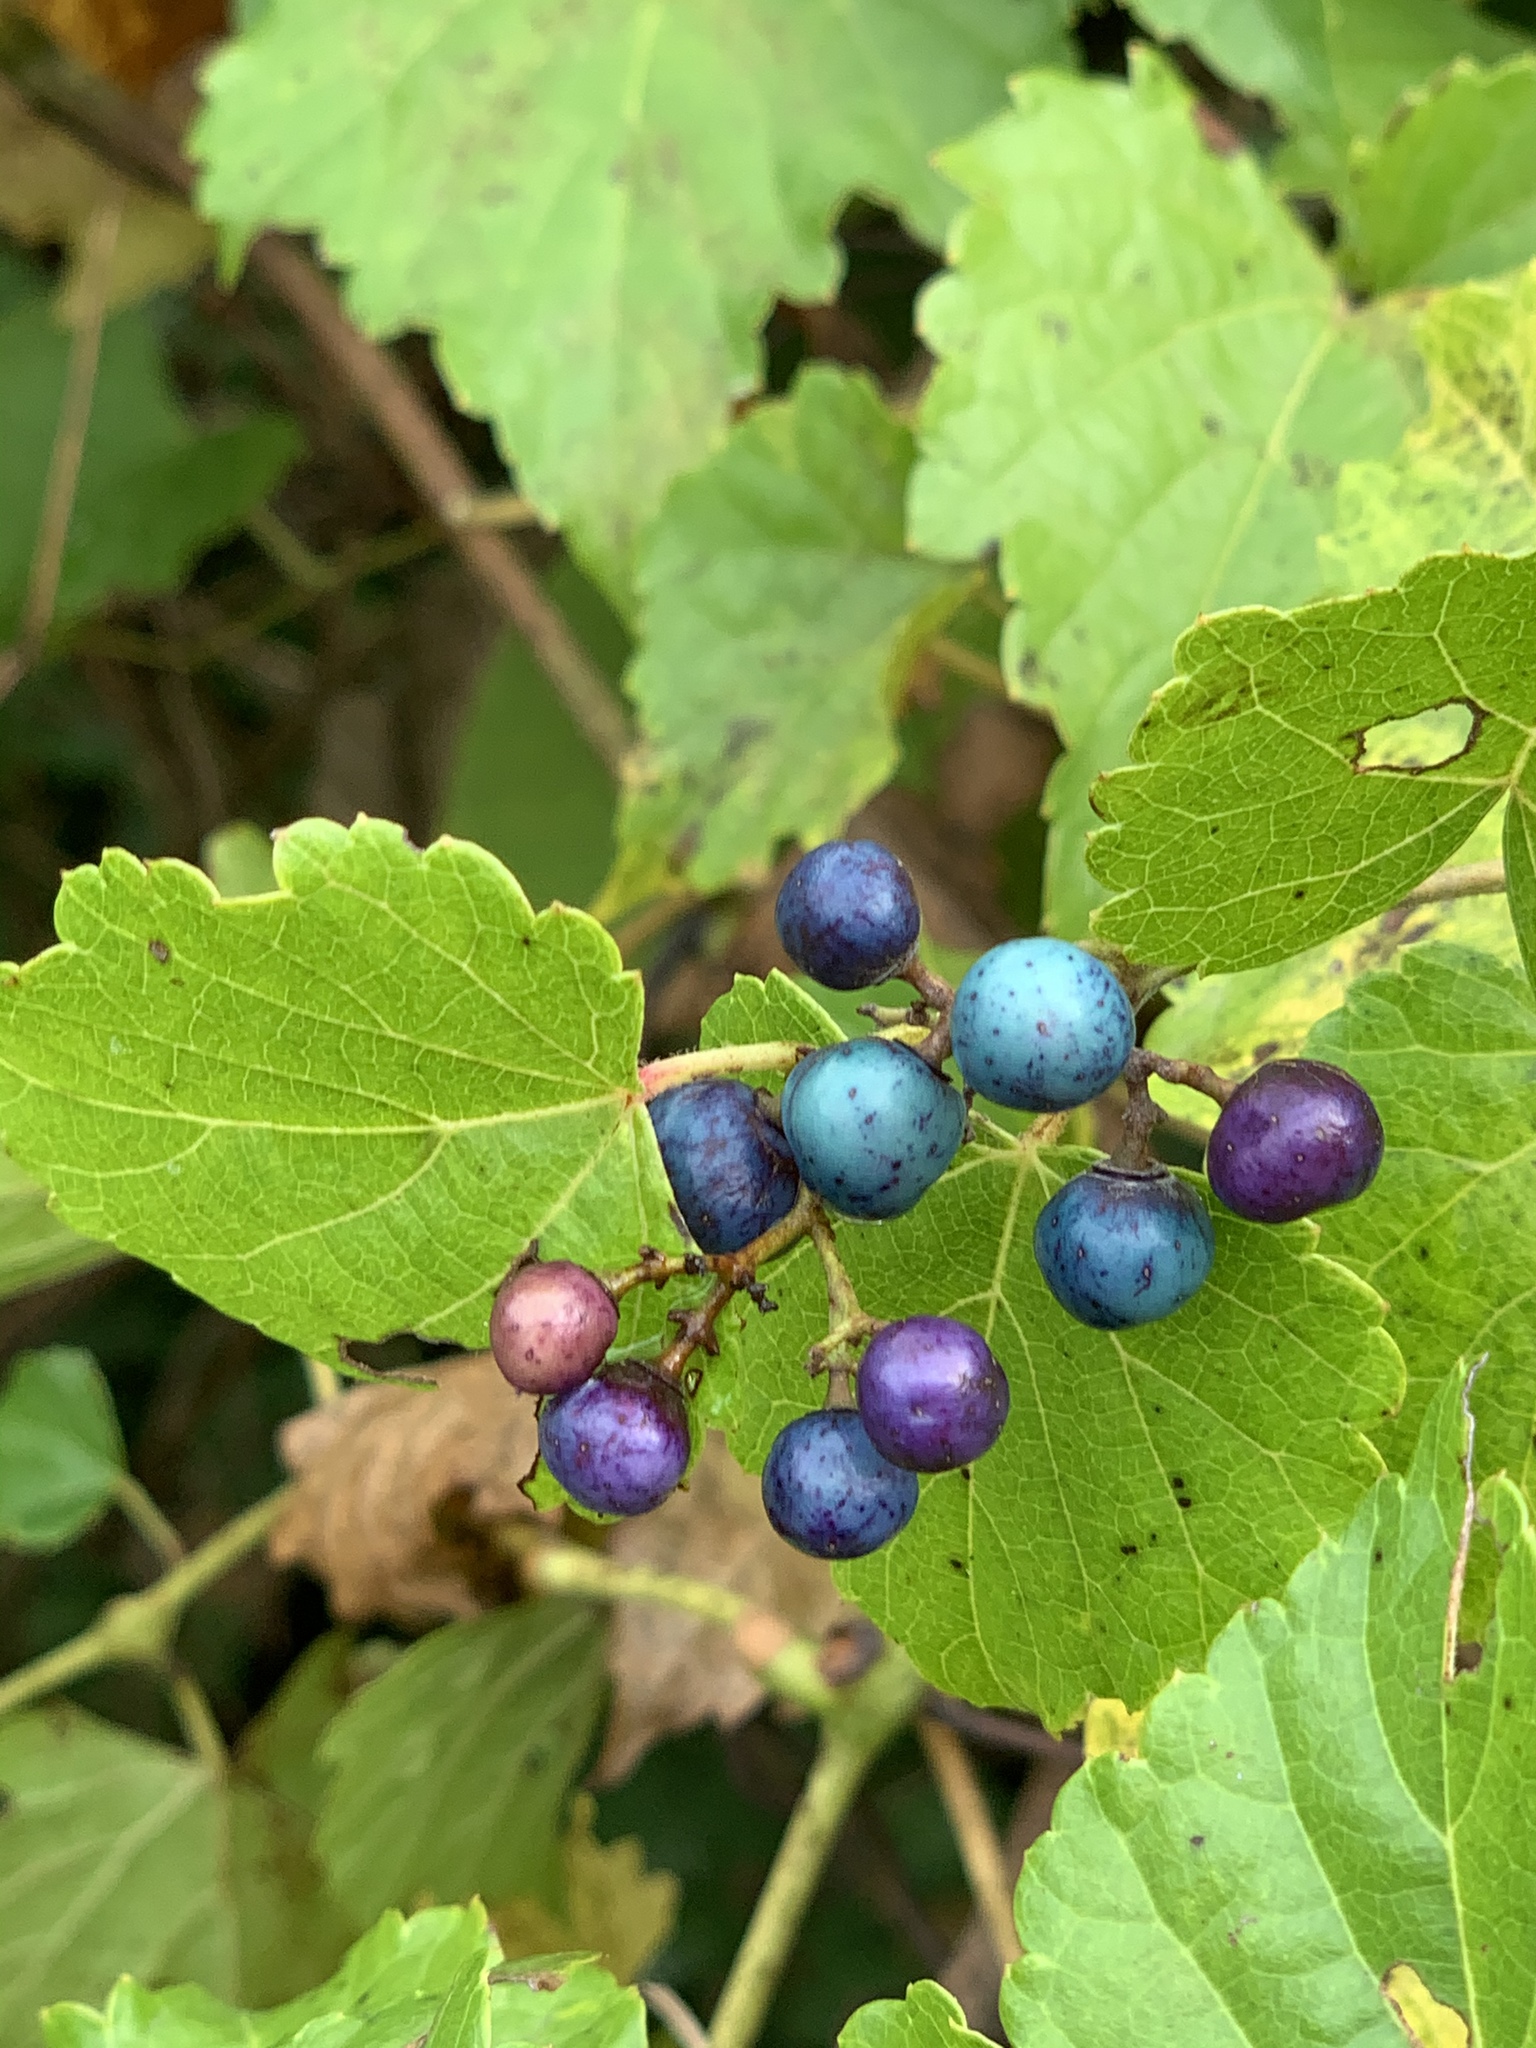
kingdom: Plantae
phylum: Tracheophyta
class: Magnoliopsida
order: Vitales
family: Vitaceae
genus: Ampelopsis
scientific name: Ampelopsis glandulosa
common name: Amur peppervine
